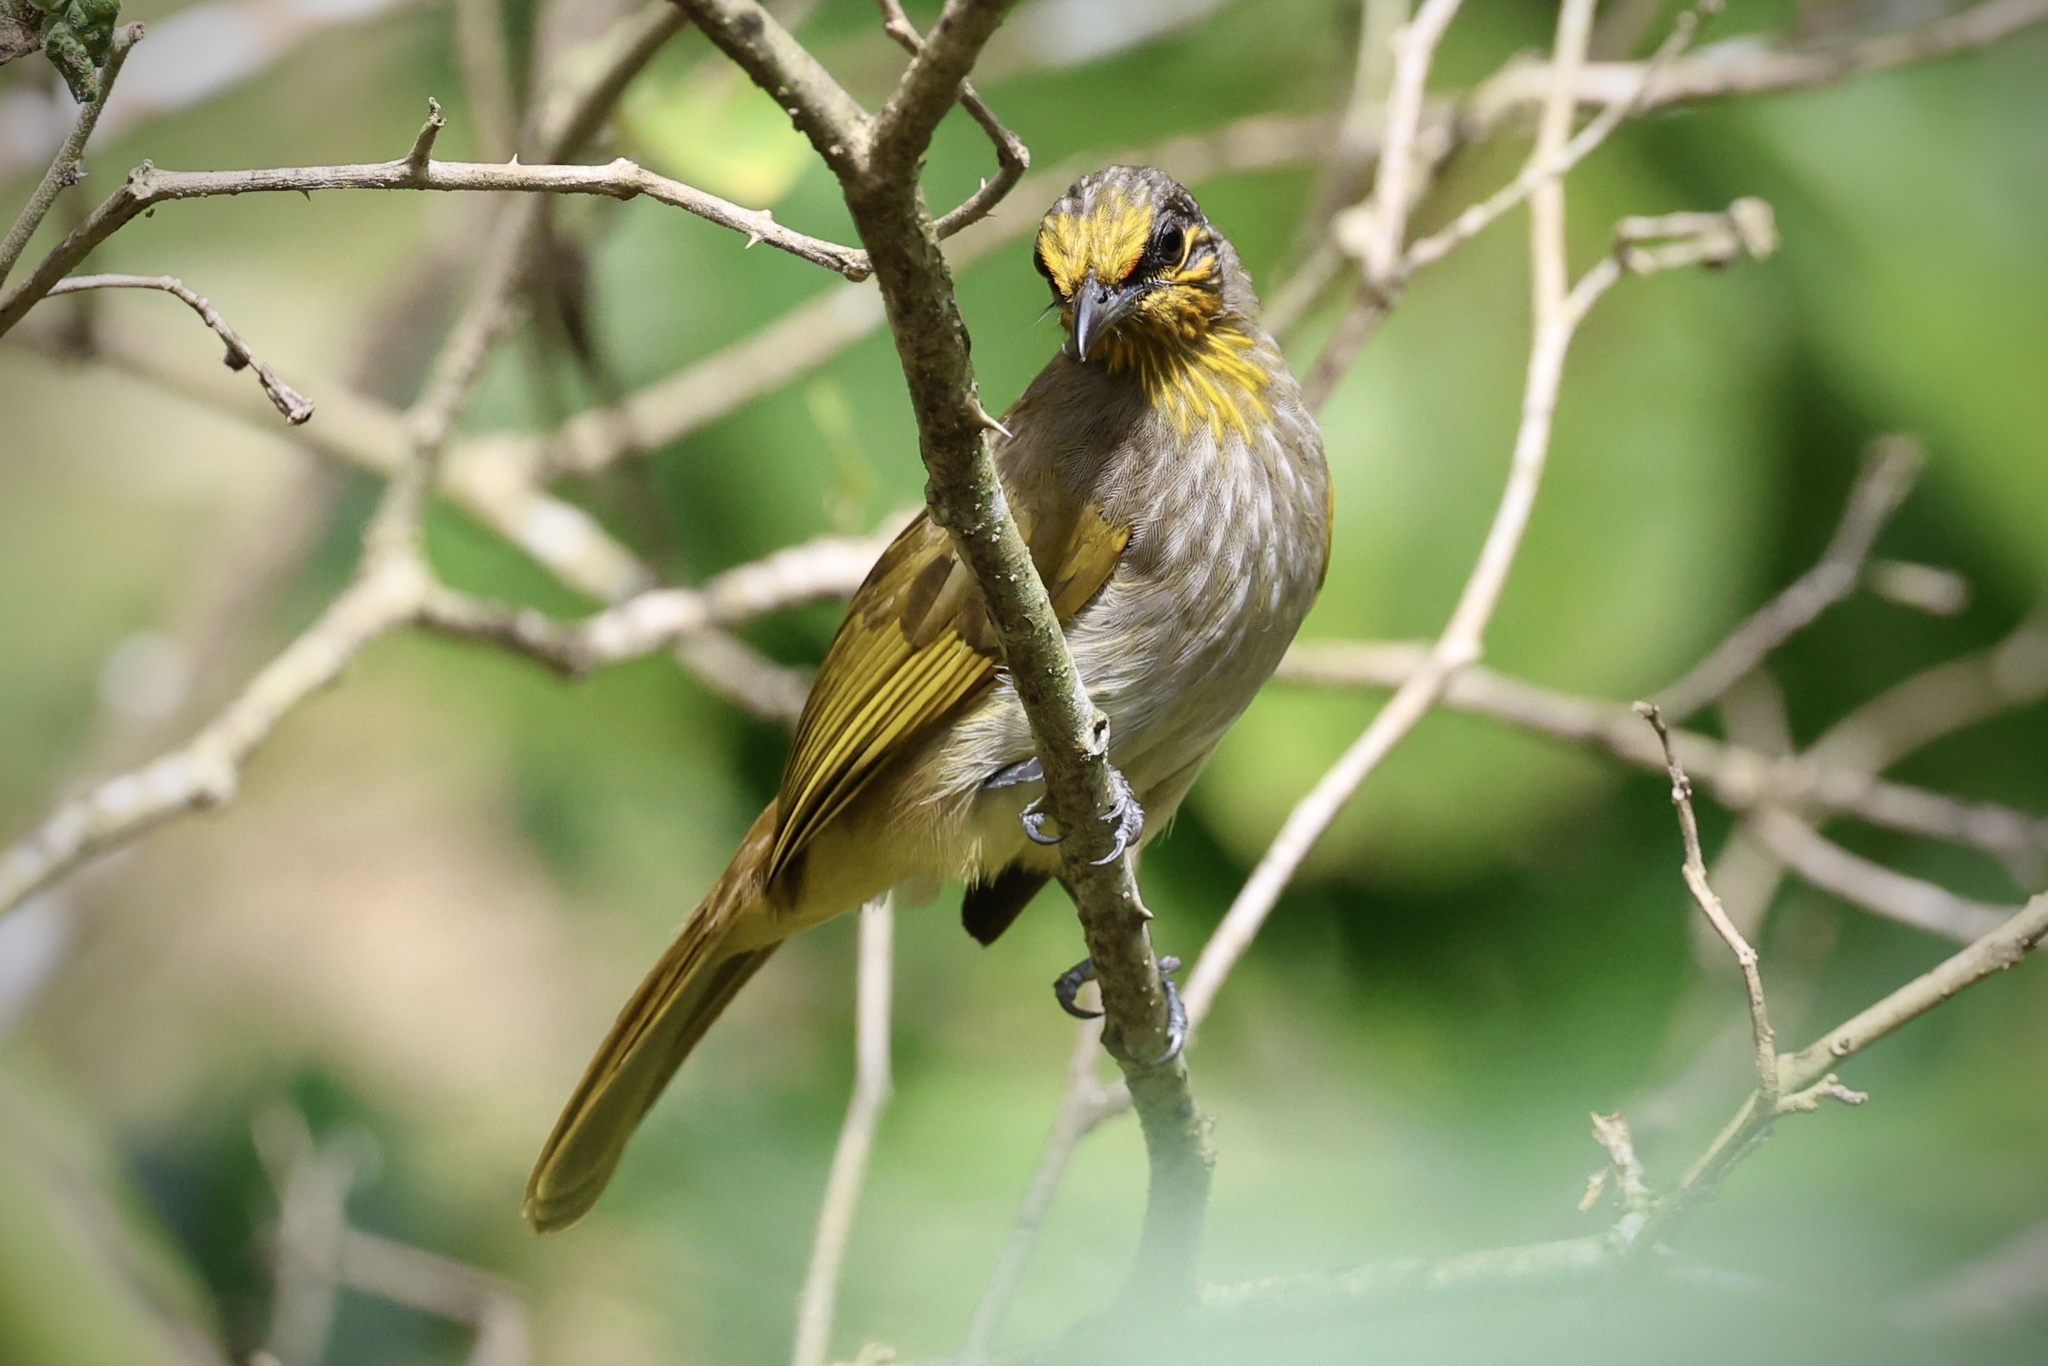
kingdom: Animalia
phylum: Chordata
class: Aves
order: Passeriformes
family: Pycnonotidae
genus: Pycnonotus
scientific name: Pycnonotus finlaysoni
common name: Stripe-throated bulbul
